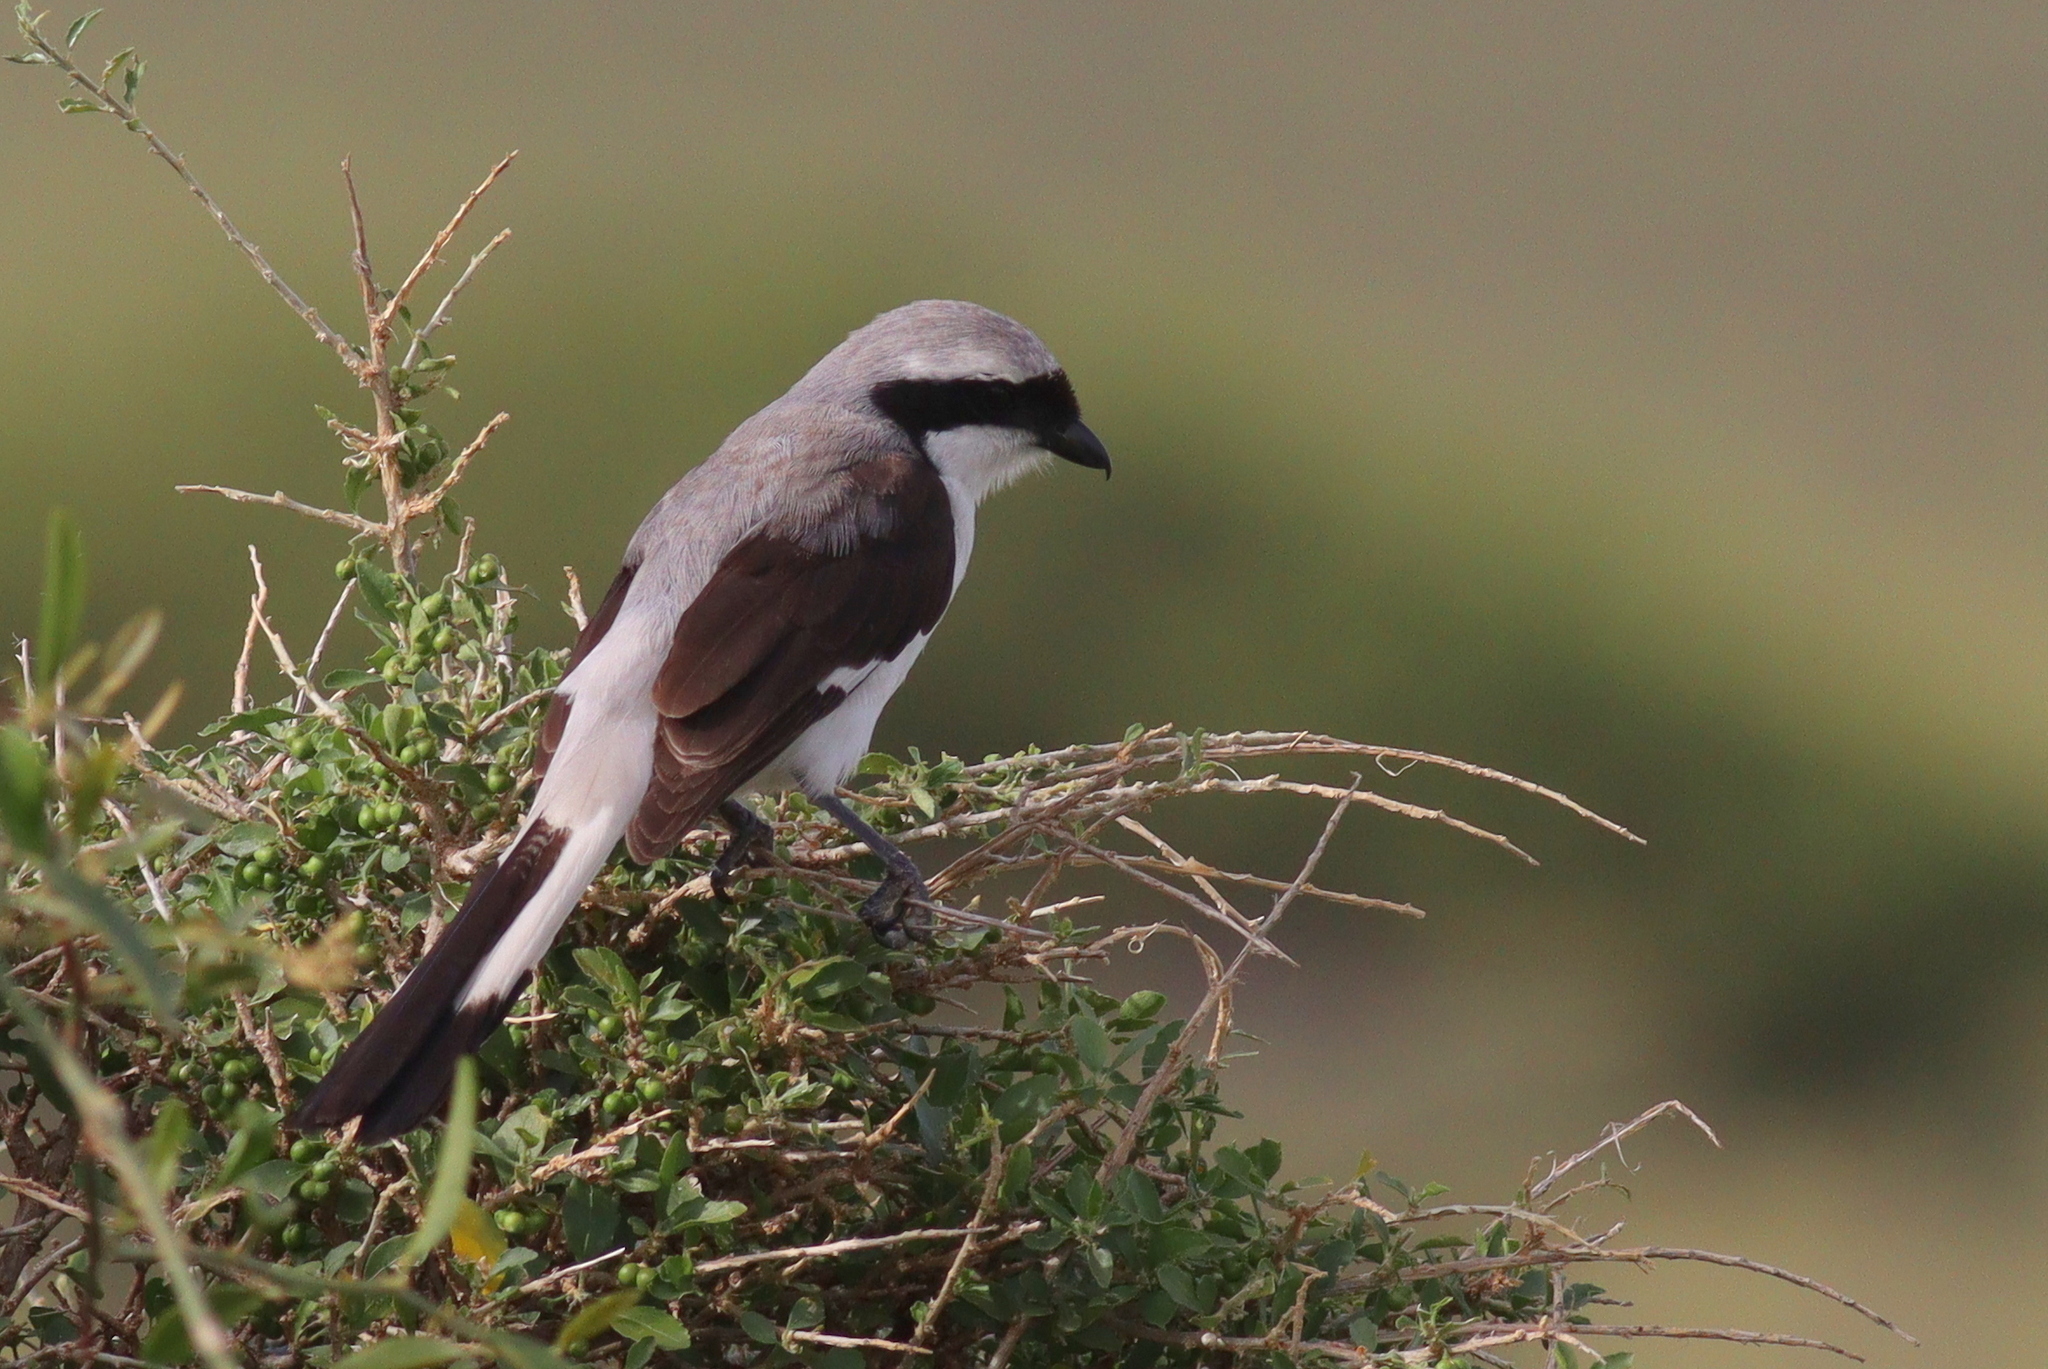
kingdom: Animalia
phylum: Chordata
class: Aves
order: Passeriformes
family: Laniidae
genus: Lanius
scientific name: Lanius excubitoroides
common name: Grey-backed fiscal
